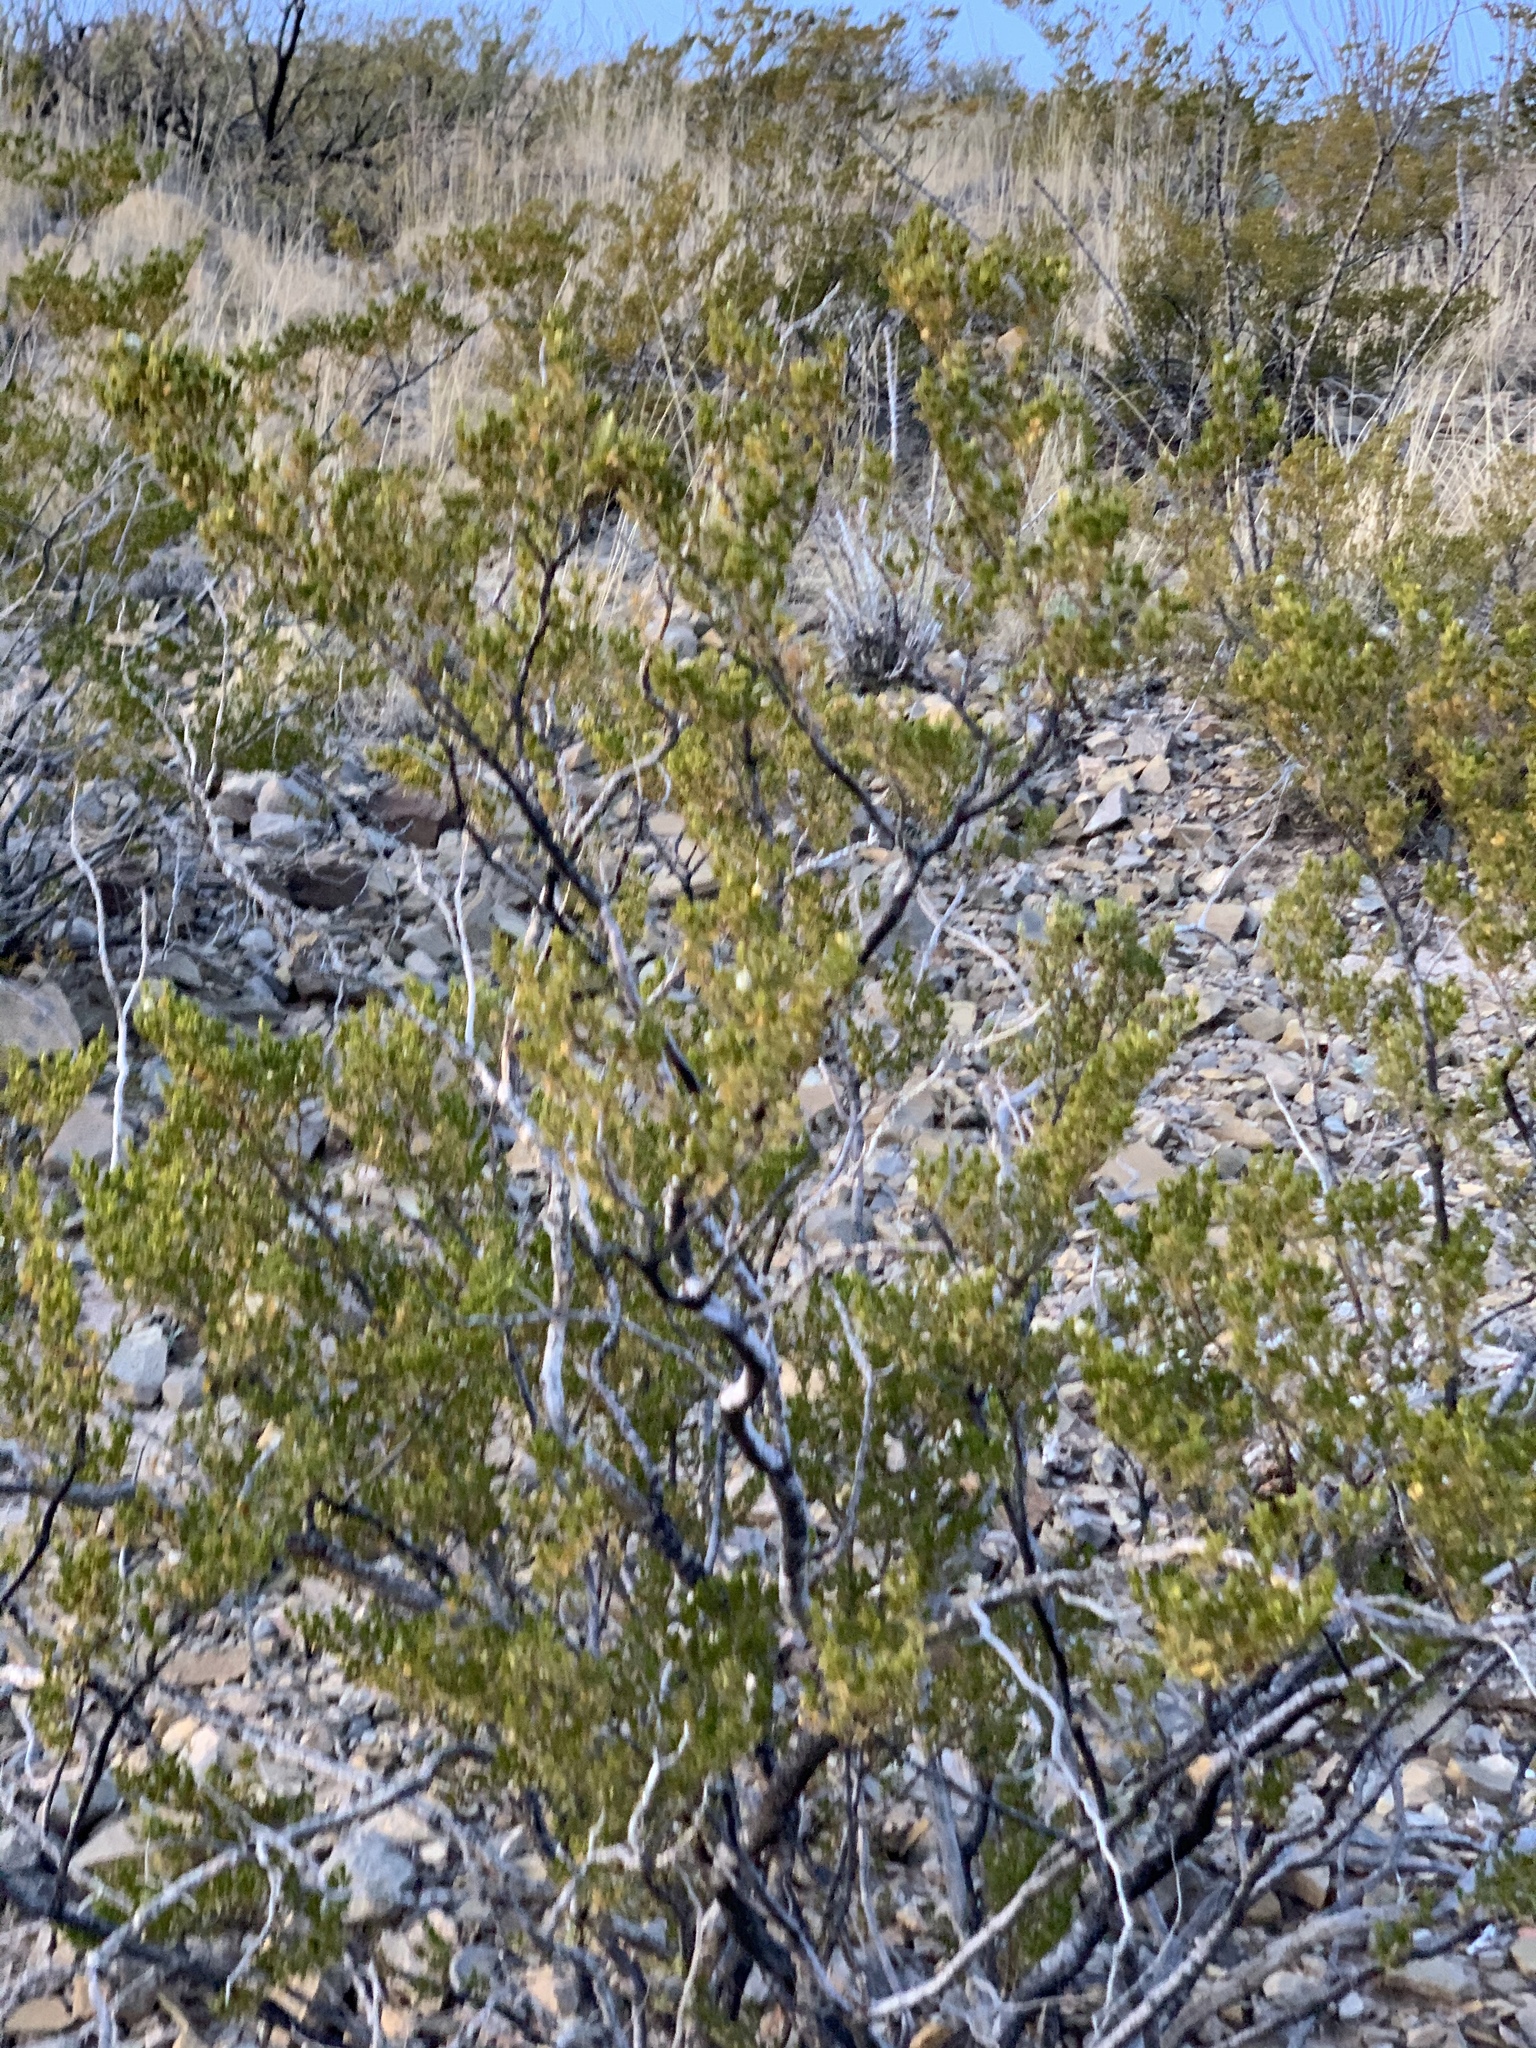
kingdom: Plantae
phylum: Tracheophyta
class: Magnoliopsida
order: Zygophyllales
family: Zygophyllaceae
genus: Larrea
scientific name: Larrea tridentata
